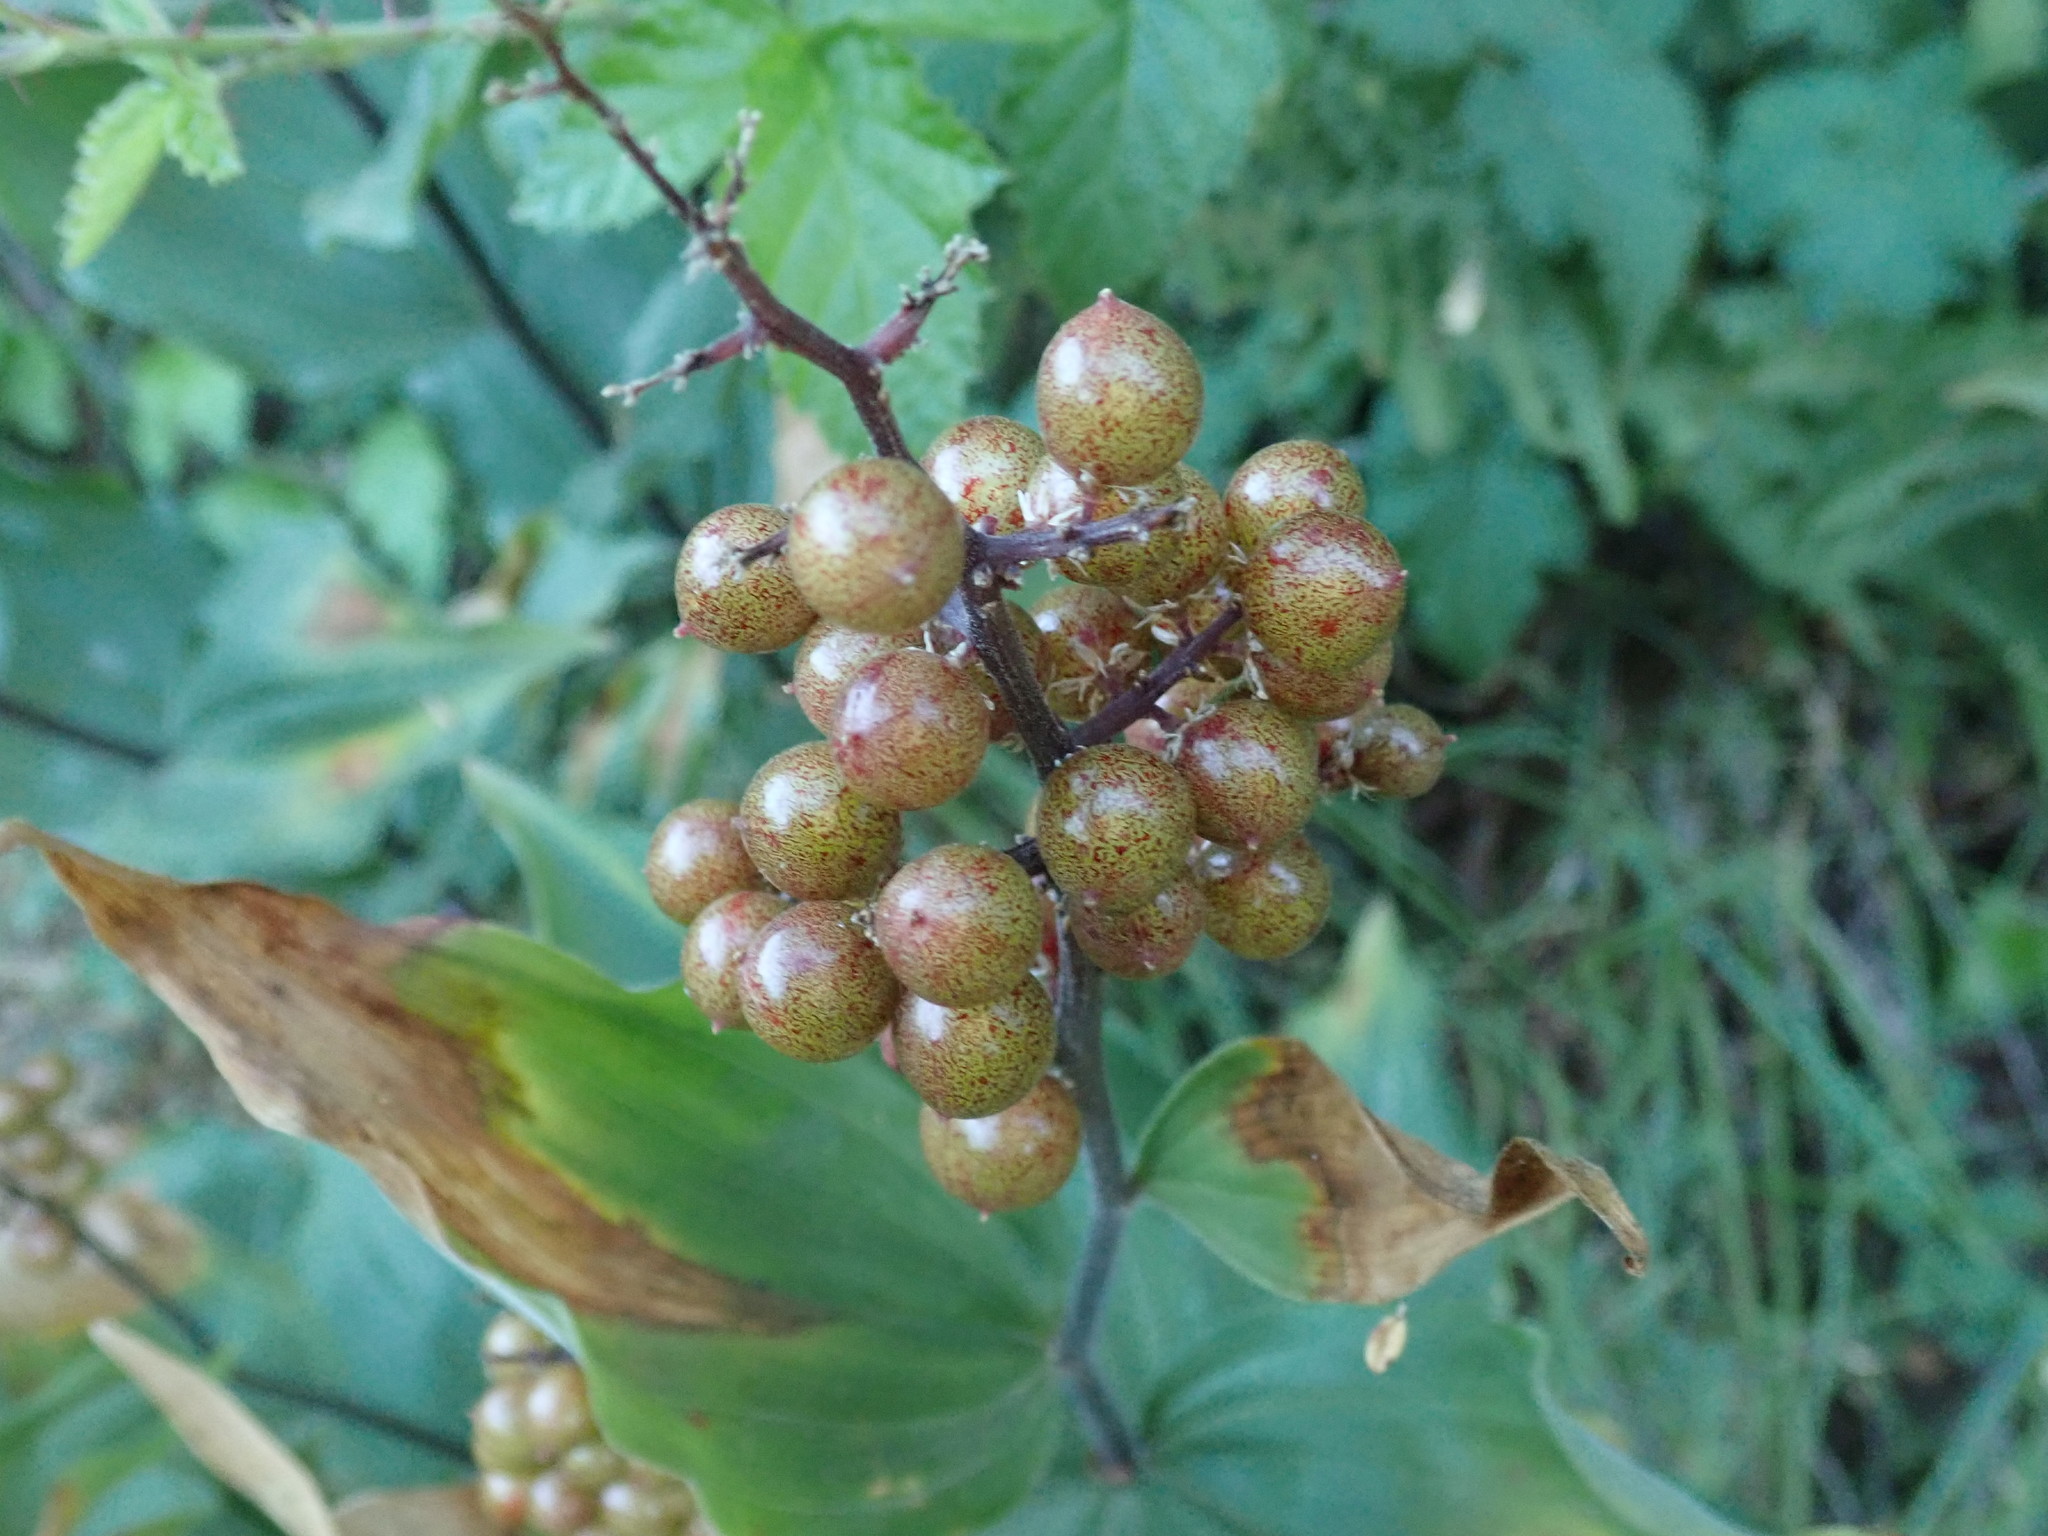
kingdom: Plantae
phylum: Tracheophyta
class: Liliopsida
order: Asparagales
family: Asparagaceae
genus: Maianthemum
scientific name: Maianthemum racemosum
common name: False spikenard
